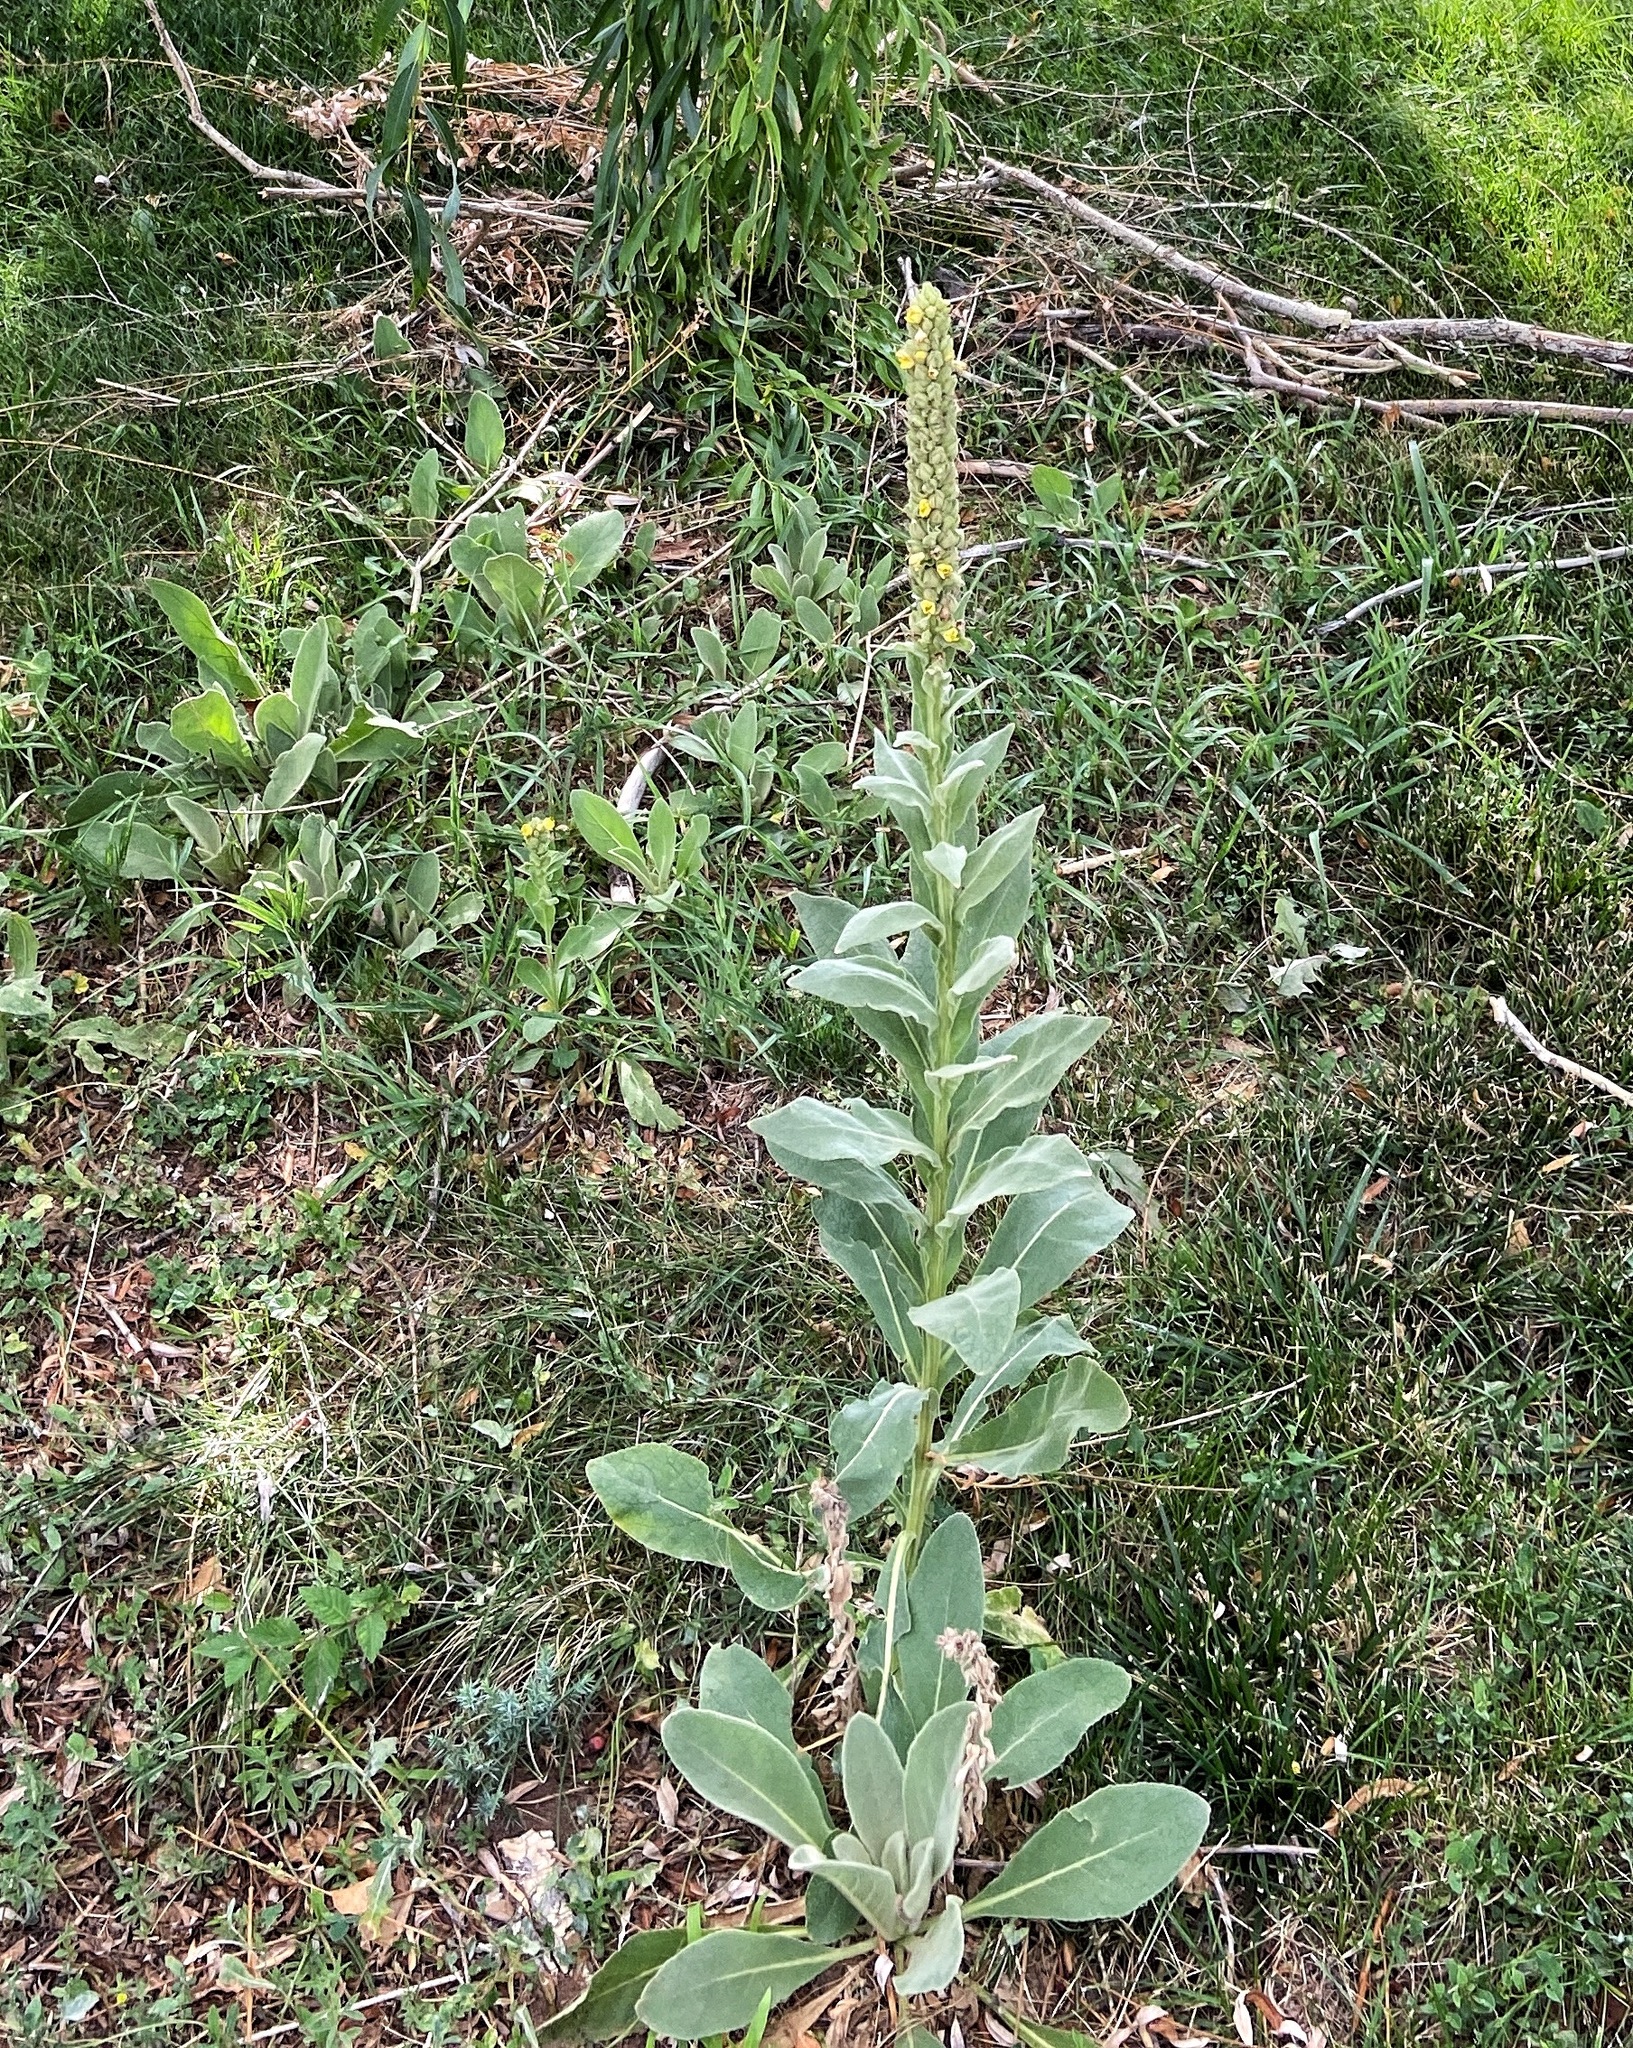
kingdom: Plantae
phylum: Tracheophyta
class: Magnoliopsida
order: Lamiales
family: Scrophulariaceae
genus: Verbascum
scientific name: Verbascum thapsus
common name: Common mullein
